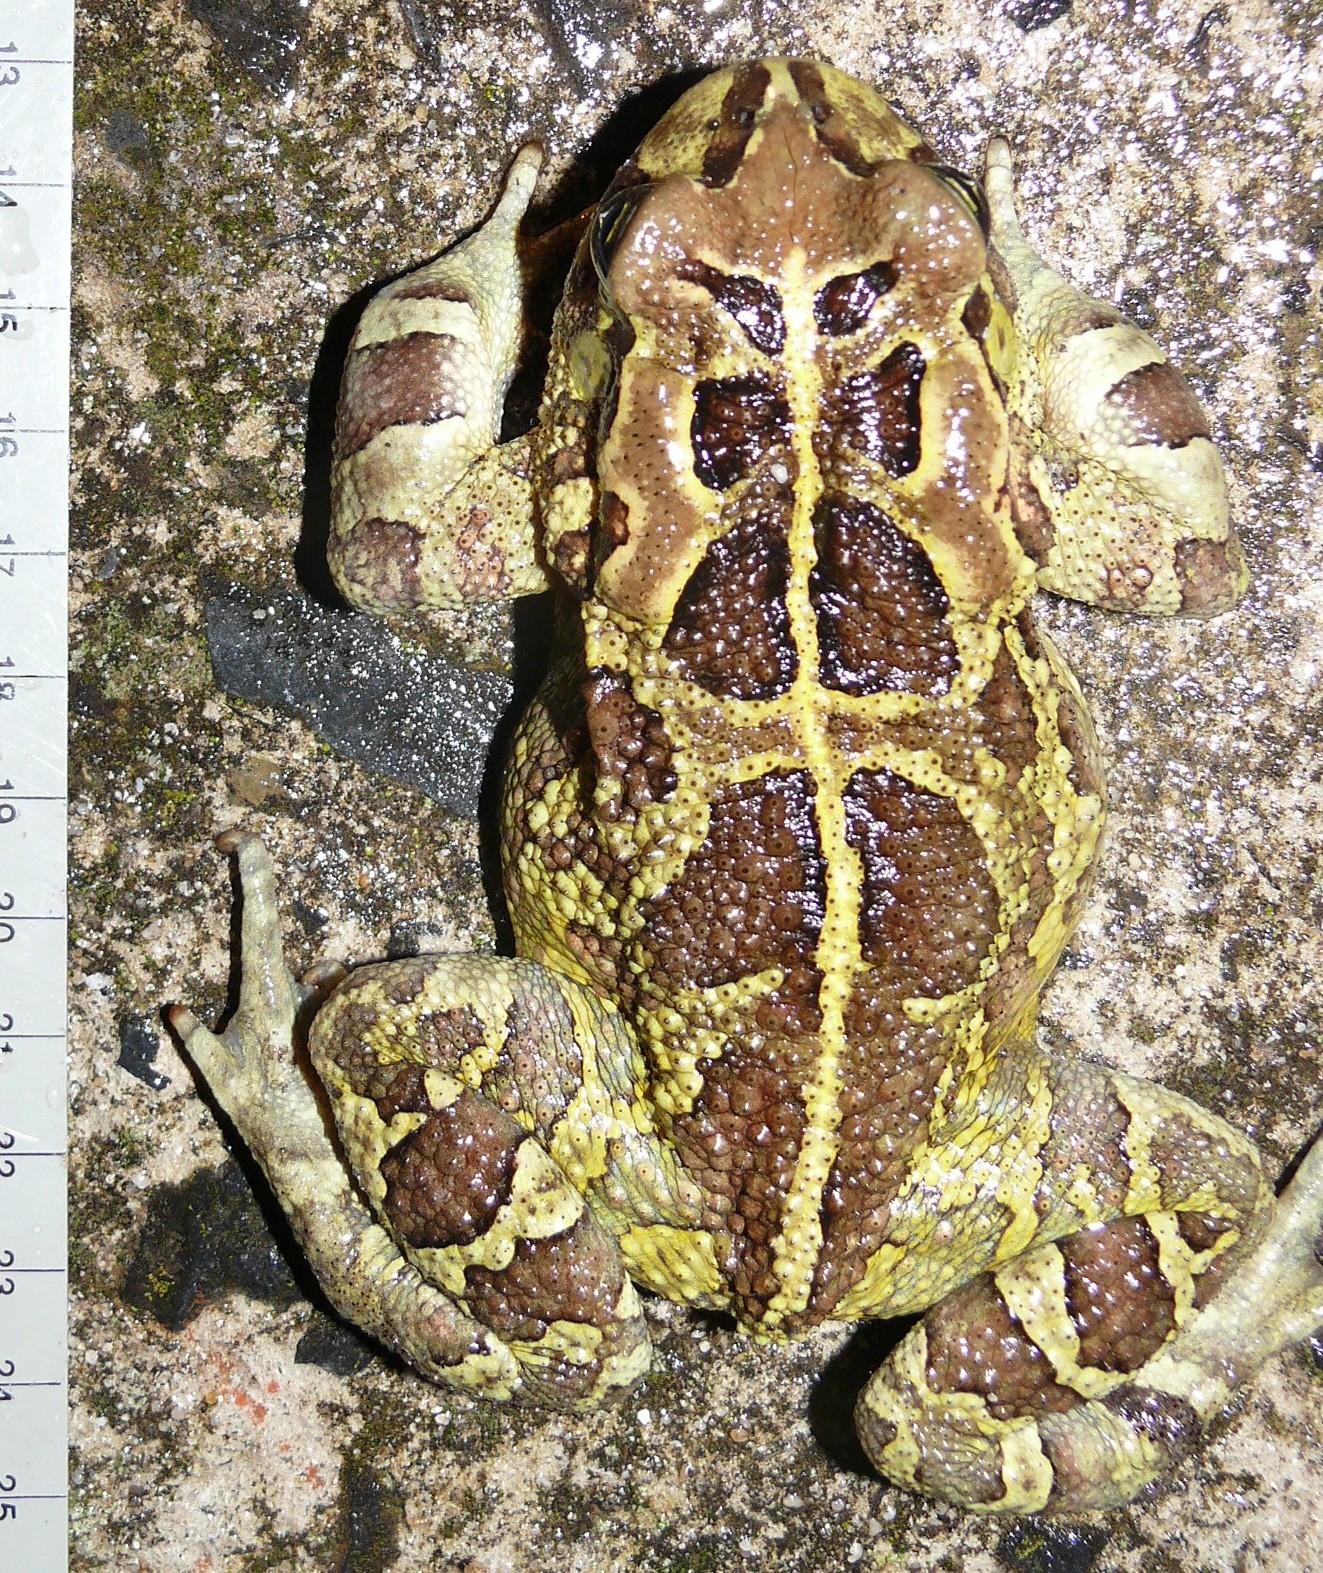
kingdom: Animalia
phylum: Chordata
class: Amphibia
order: Anura
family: Bufonidae
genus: Sclerophrys
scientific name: Sclerophrys pantherina
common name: Panther toad
